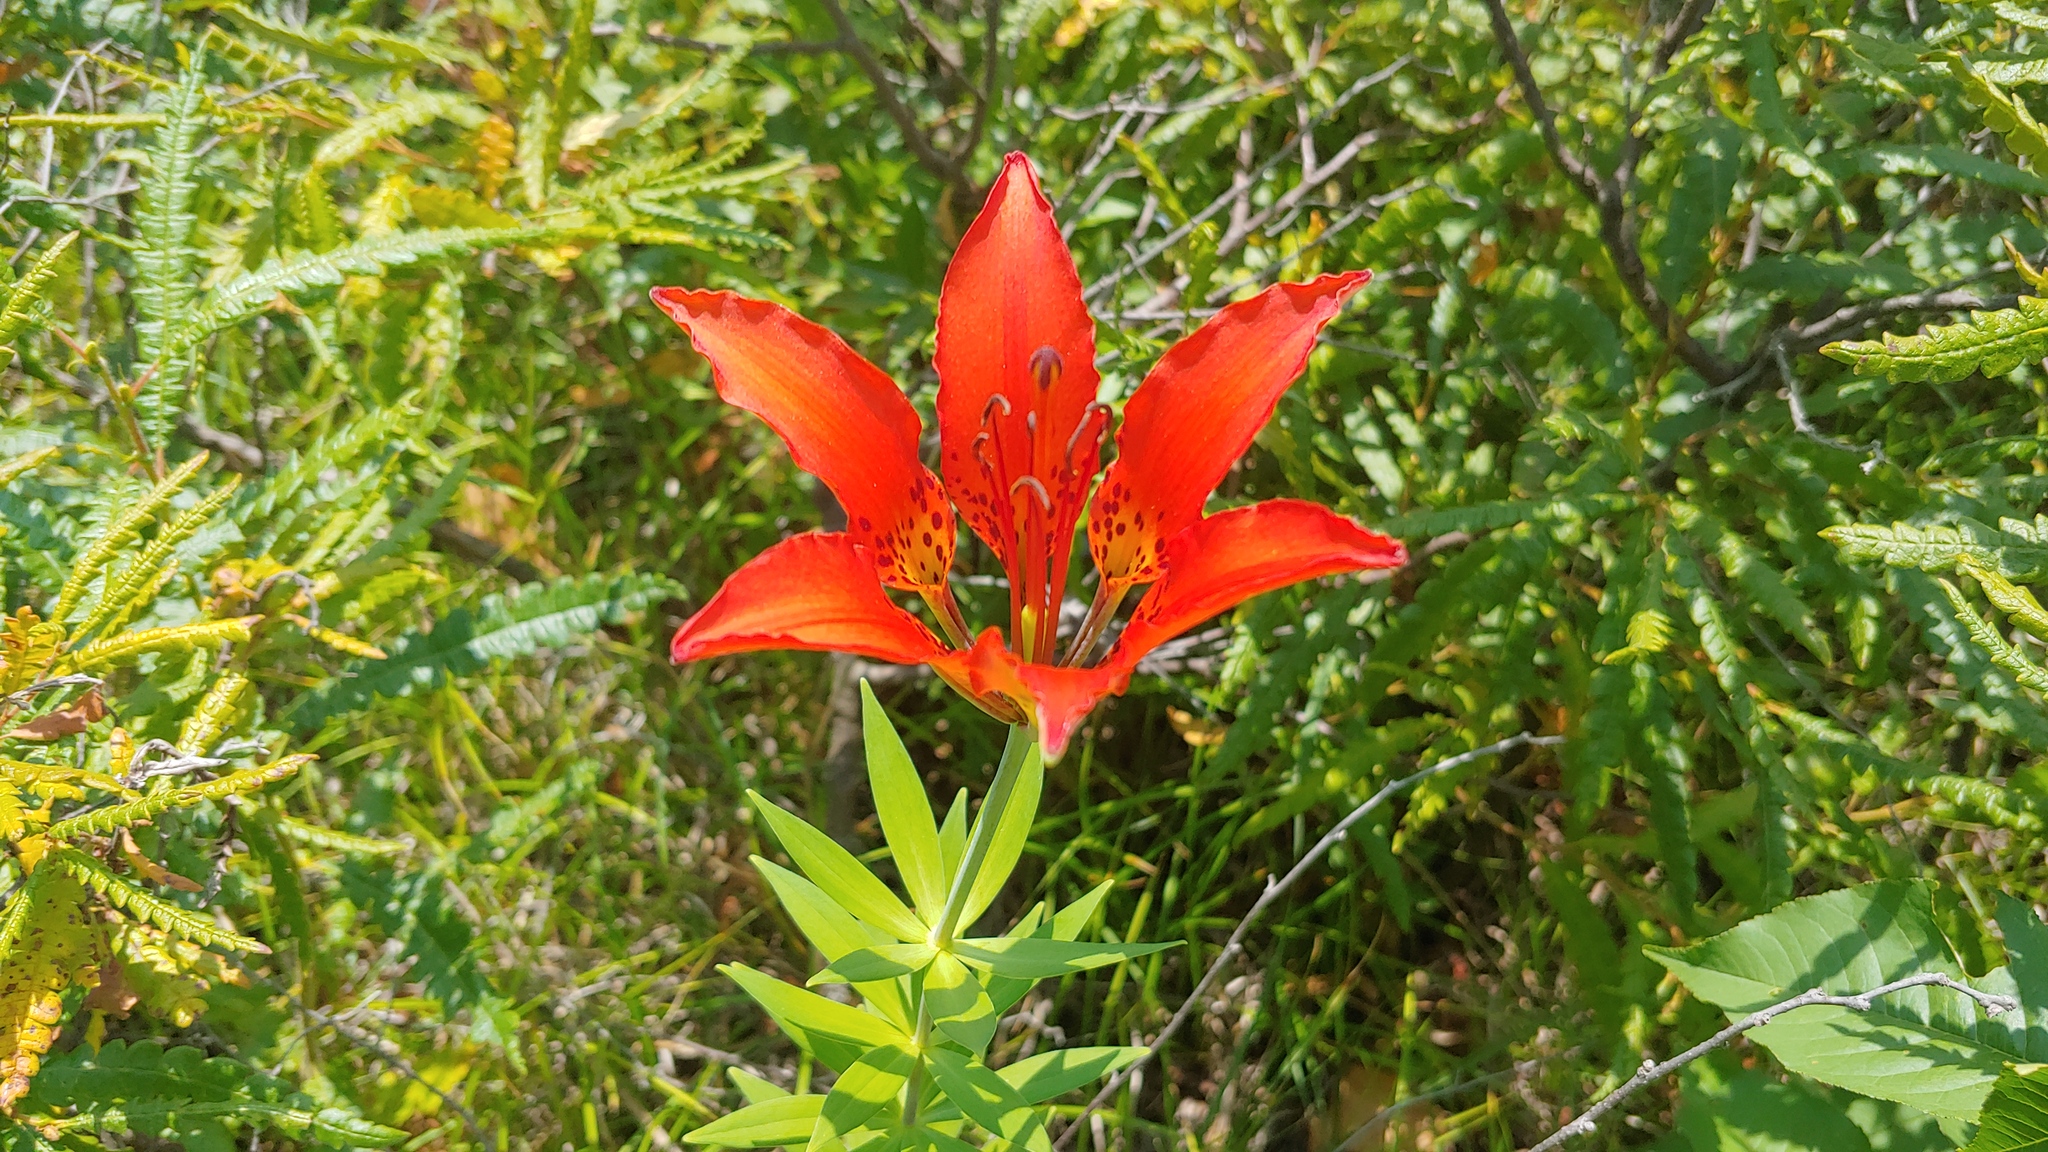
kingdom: Plantae
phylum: Tracheophyta
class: Liliopsida
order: Liliales
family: Liliaceae
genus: Lilium
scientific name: Lilium philadelphicum
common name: Red lily
